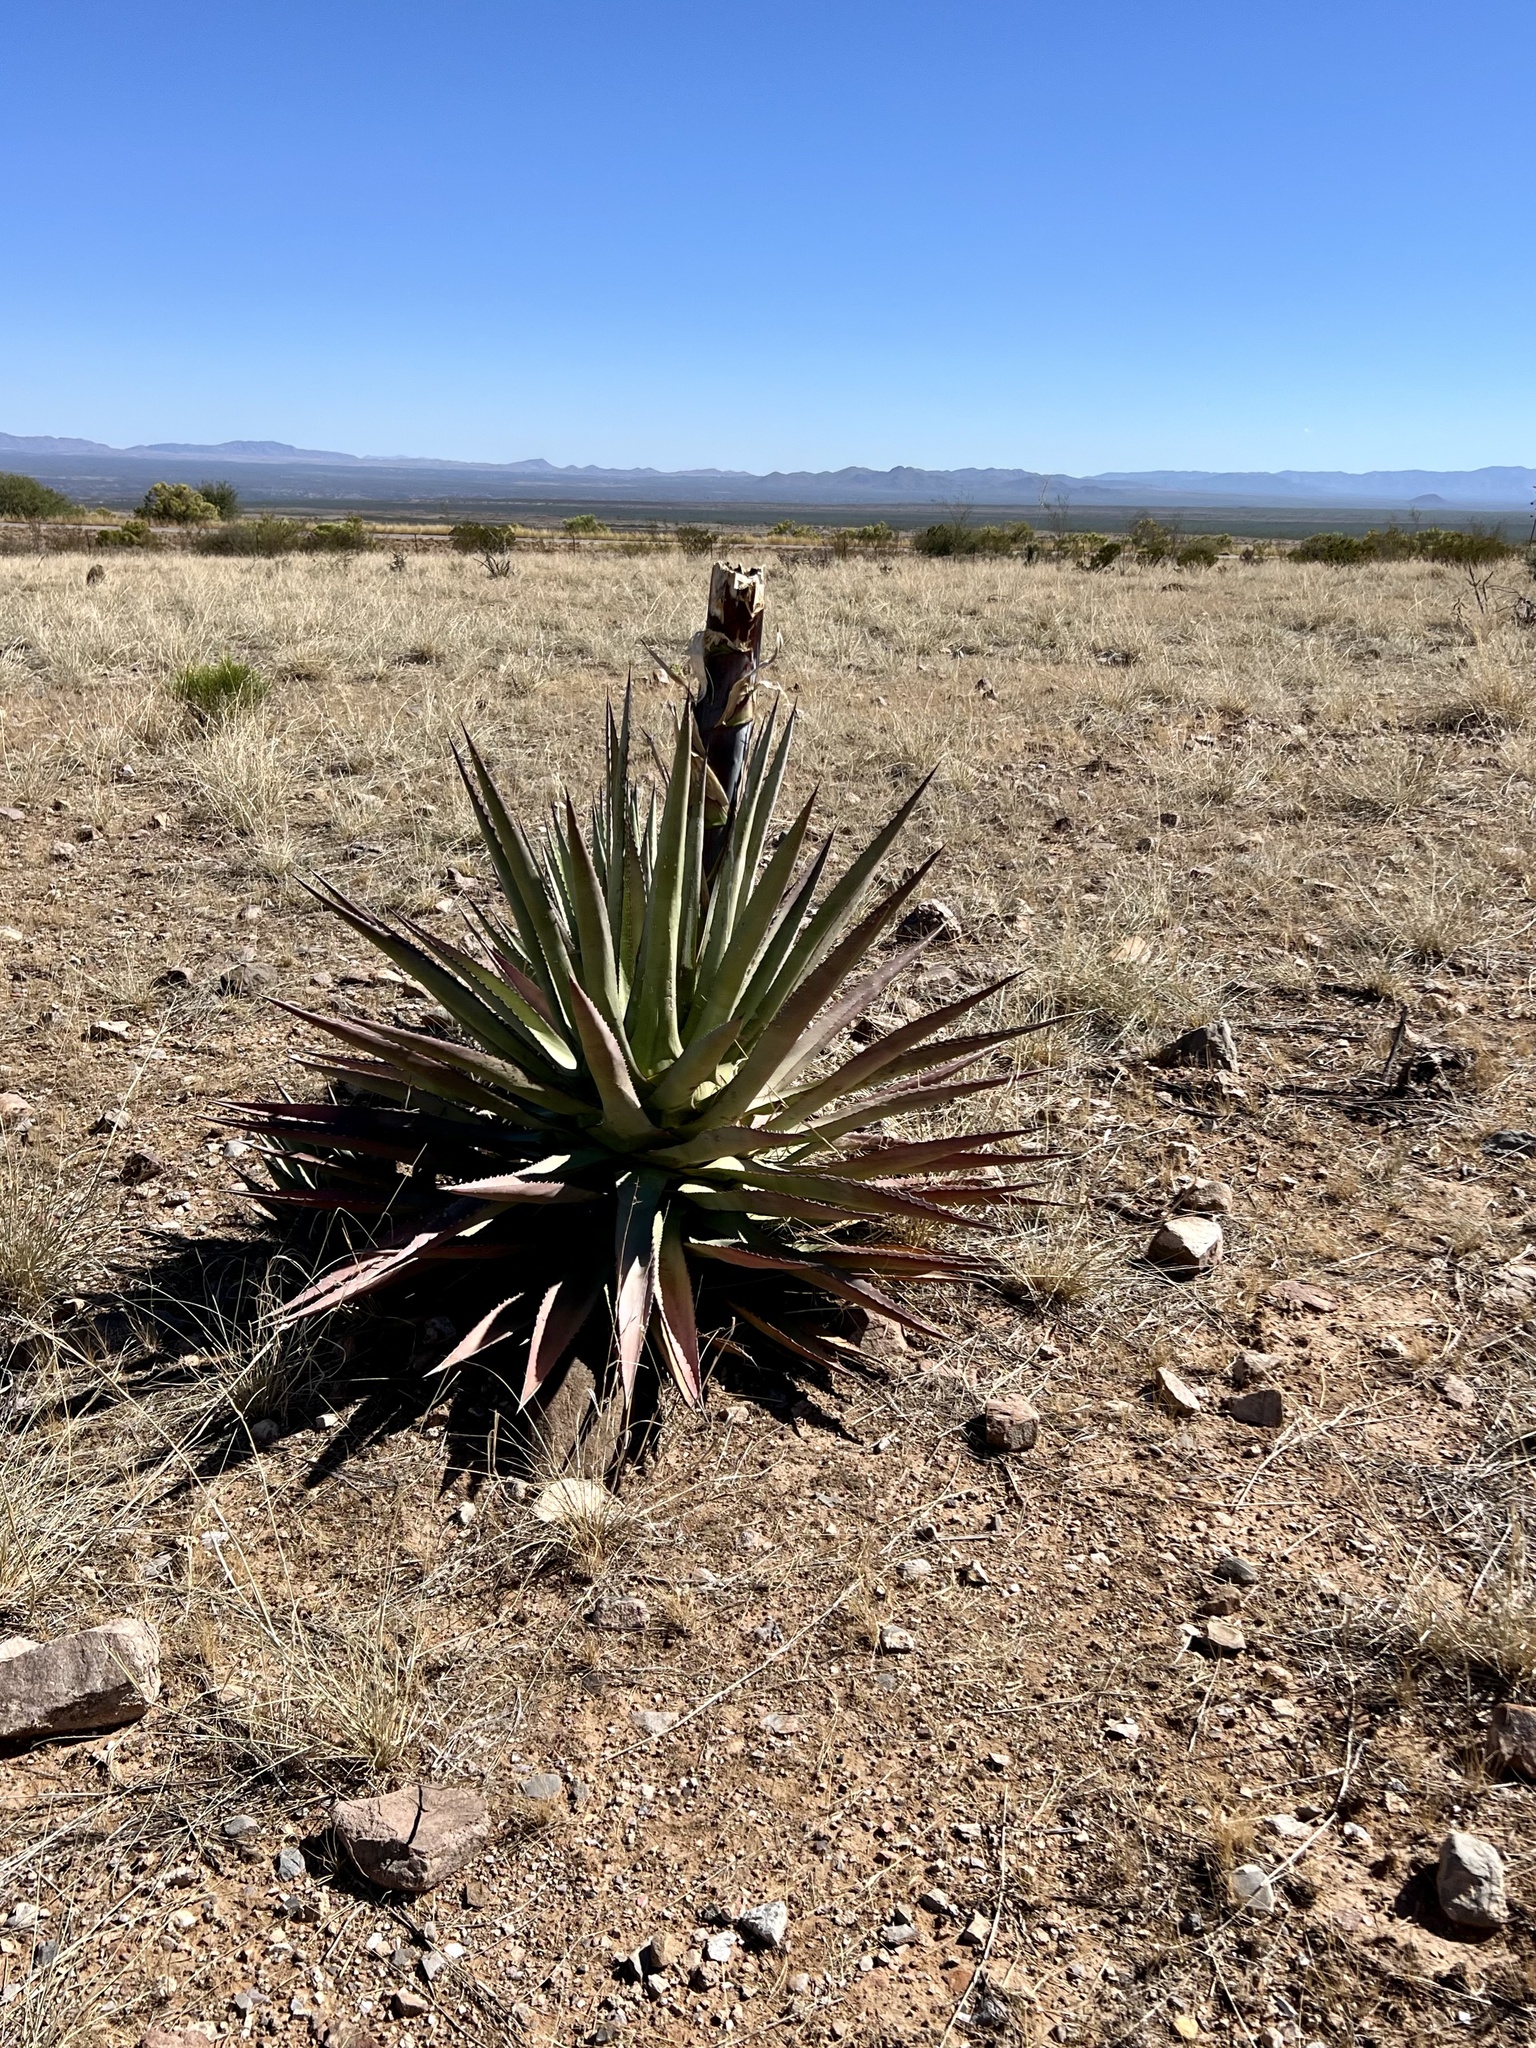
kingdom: Plantae
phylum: Tracheophyta
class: Liliopsida
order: Asparagales
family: Asparagaceae
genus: Agave
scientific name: Agave palmeri
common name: Palmer agave
